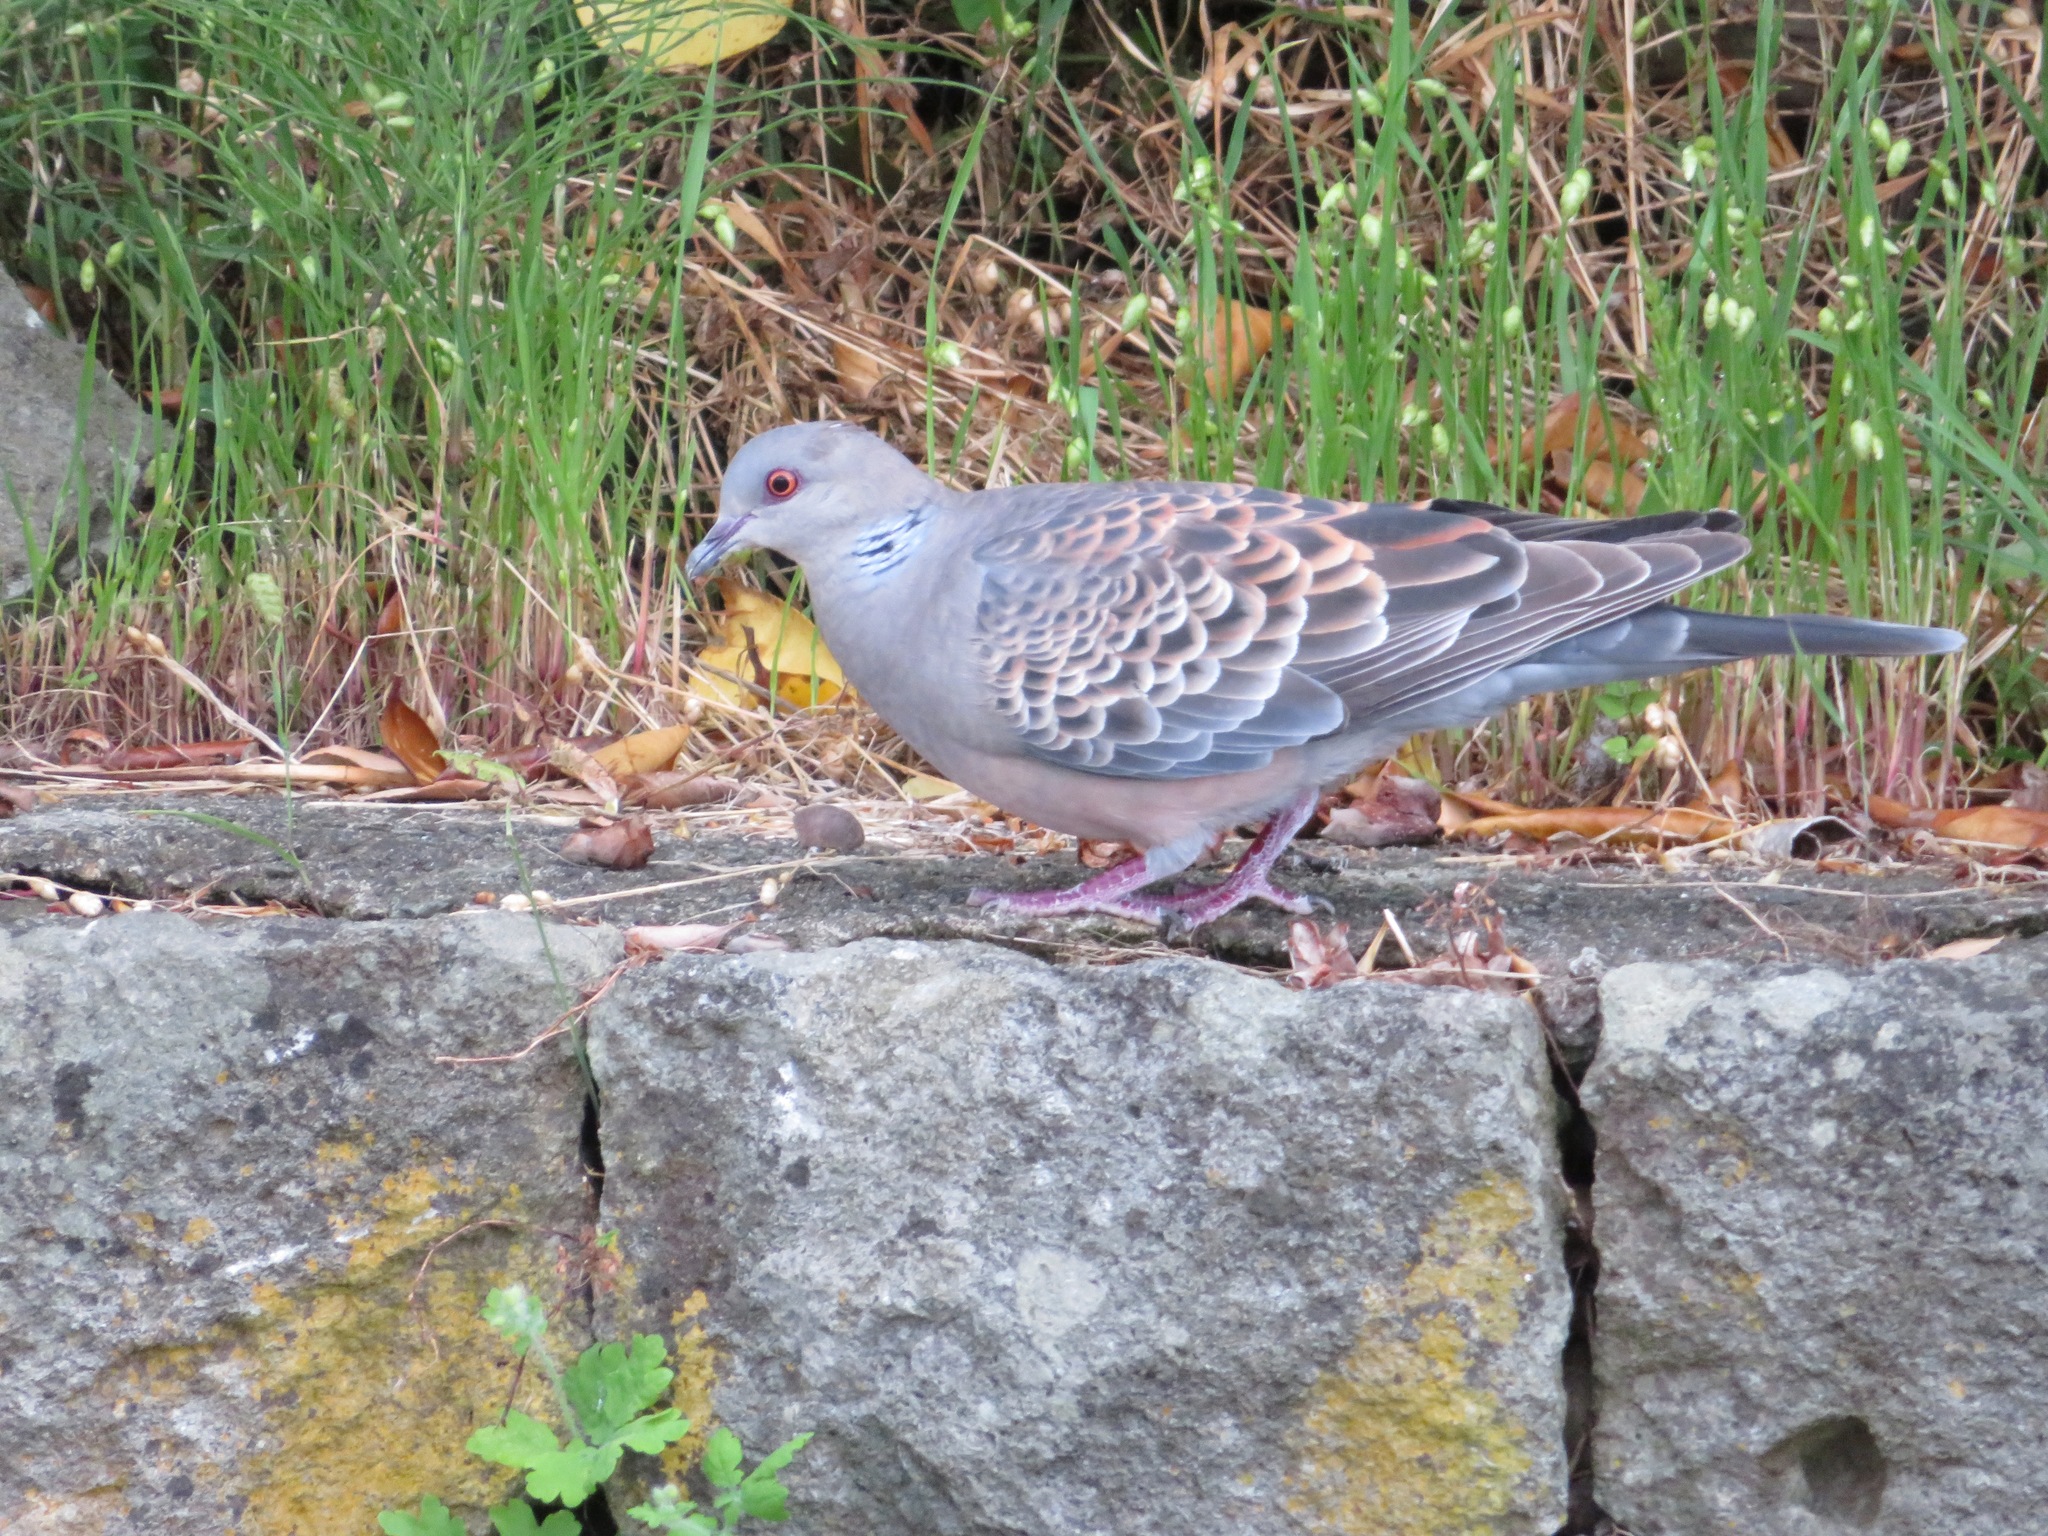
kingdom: Animalia
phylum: Chordata
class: Aves
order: Columbiformes
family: Columbidae
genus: Streptopelia
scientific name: Streptopelia orientalis
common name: Oriental turtle dove
